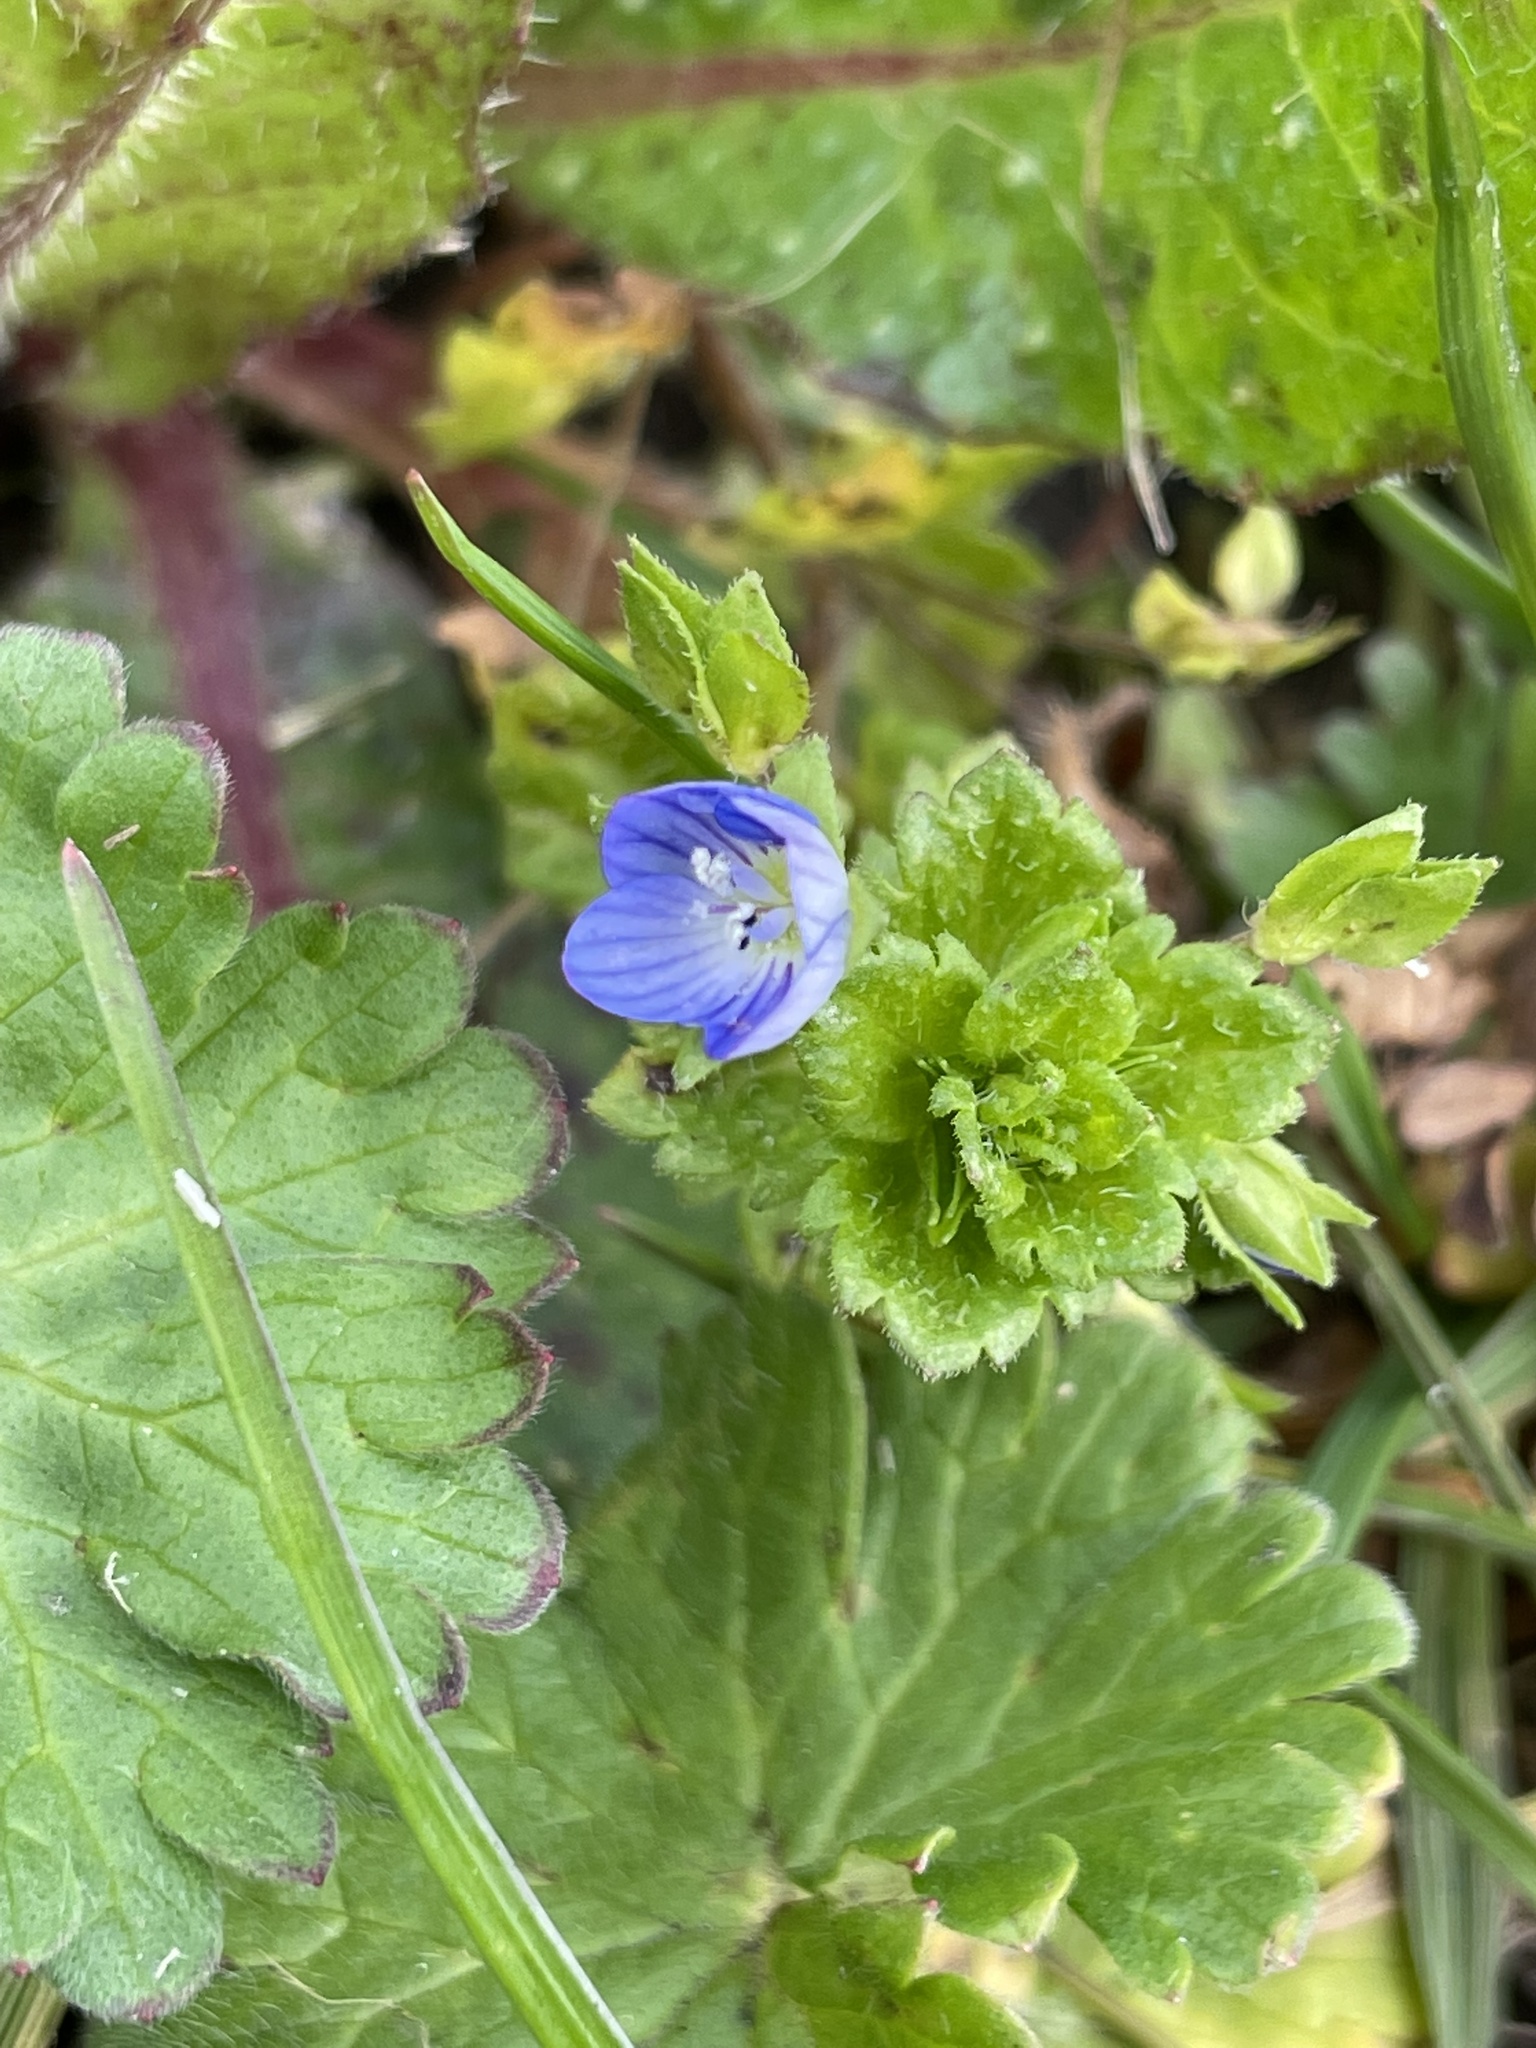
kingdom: Plantae
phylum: Tracheophyta
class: Magnoliopsida
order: Lamiales
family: Plantaginaceae
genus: Veronica
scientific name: Veronica persica
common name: Common field-speedwell
